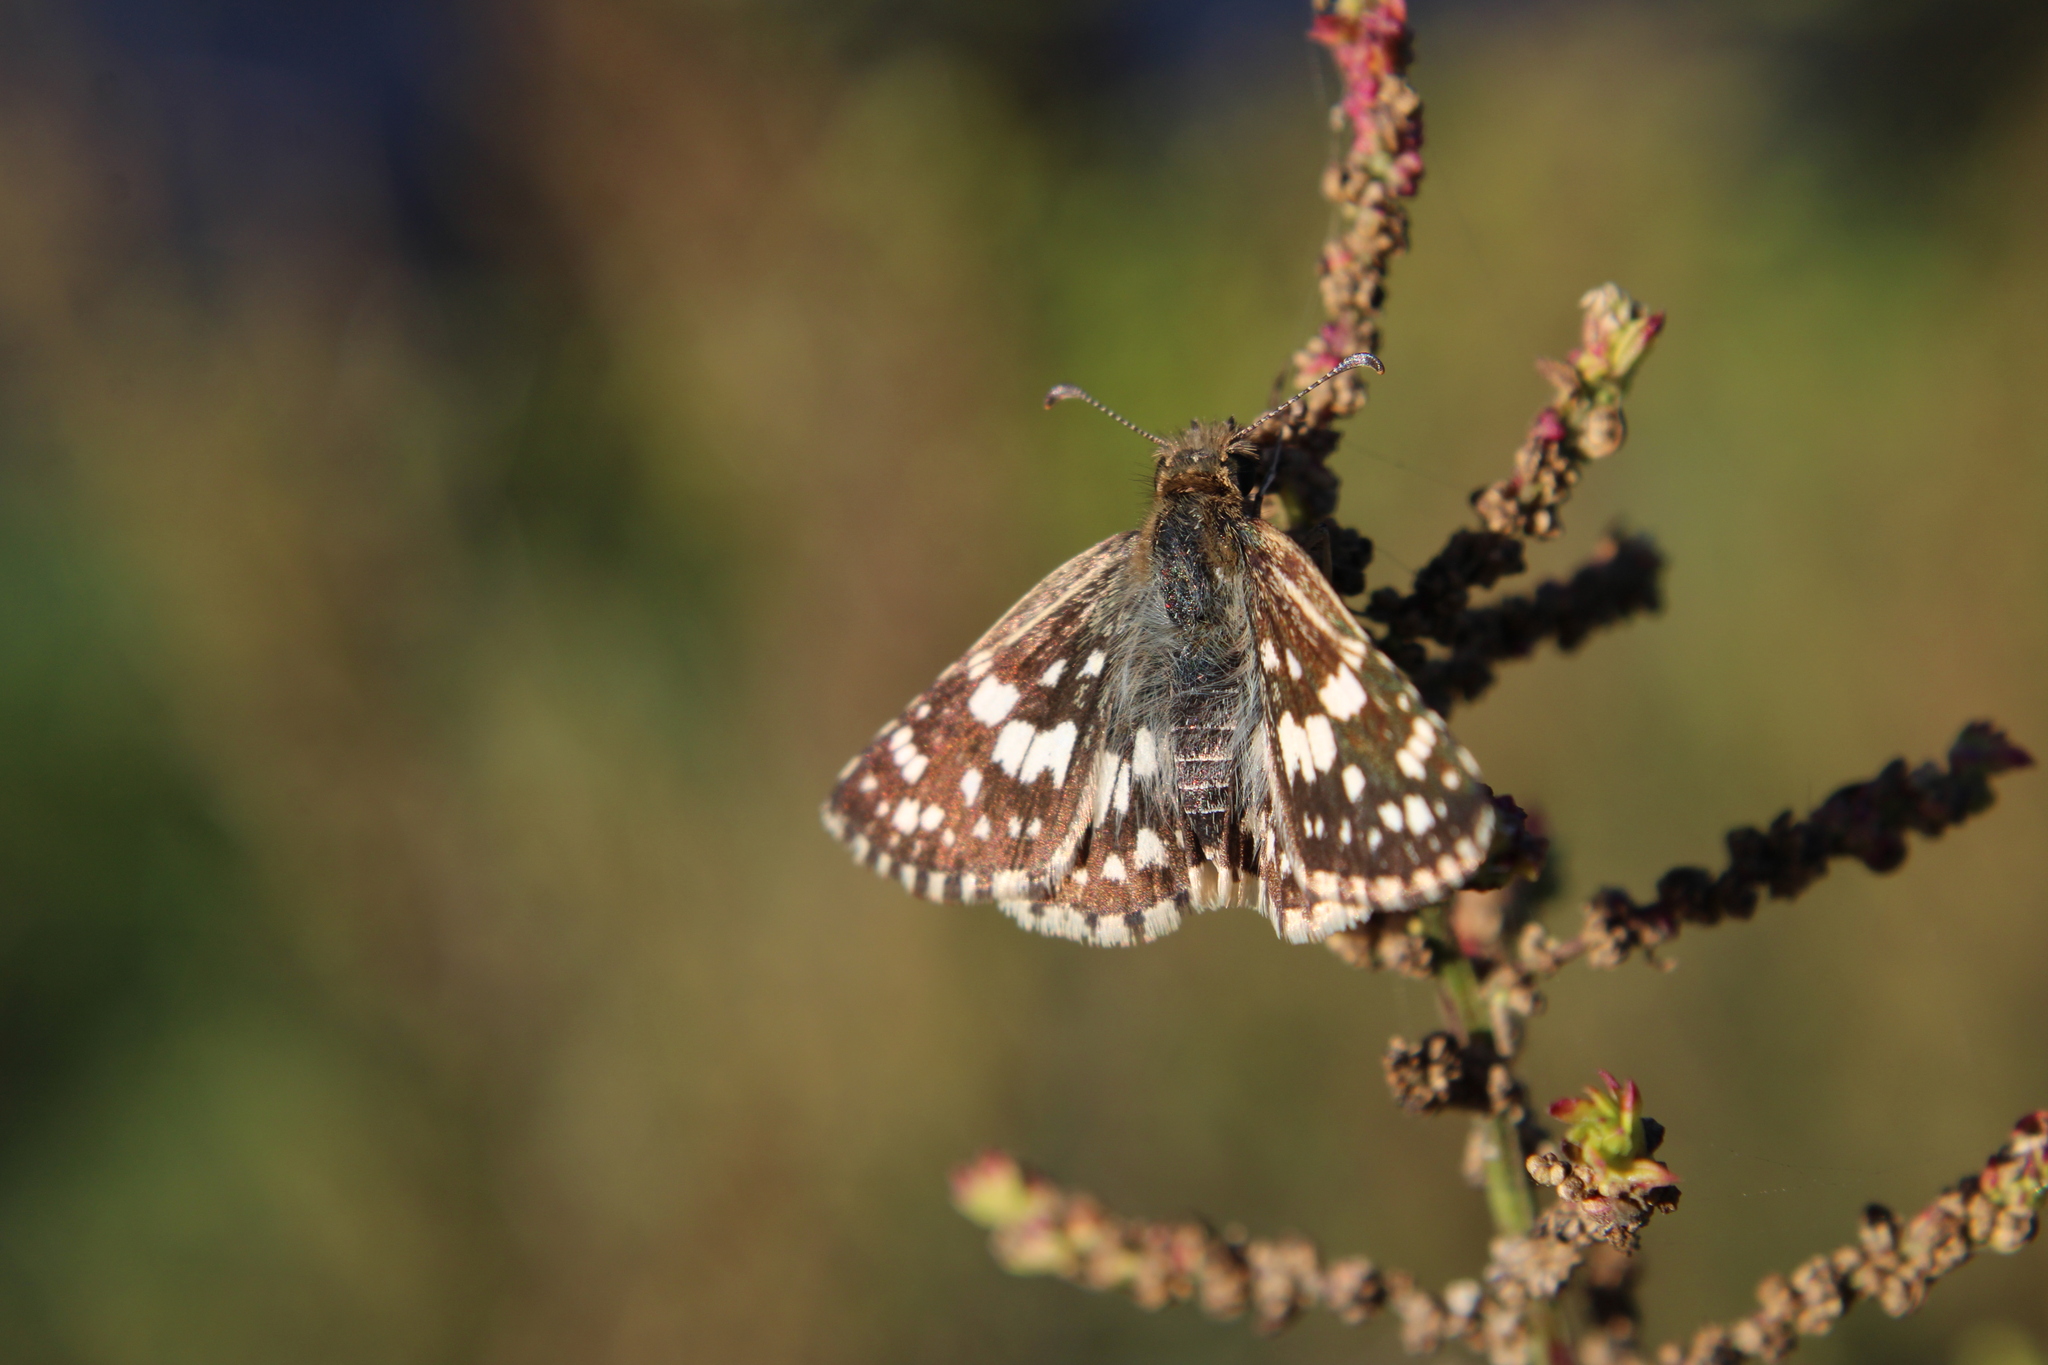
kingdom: Animalia
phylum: Arthropoda
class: Insecta
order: Lepidoptera
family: Hesperiidae
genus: Burnsius
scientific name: Burnsius orcynoides
